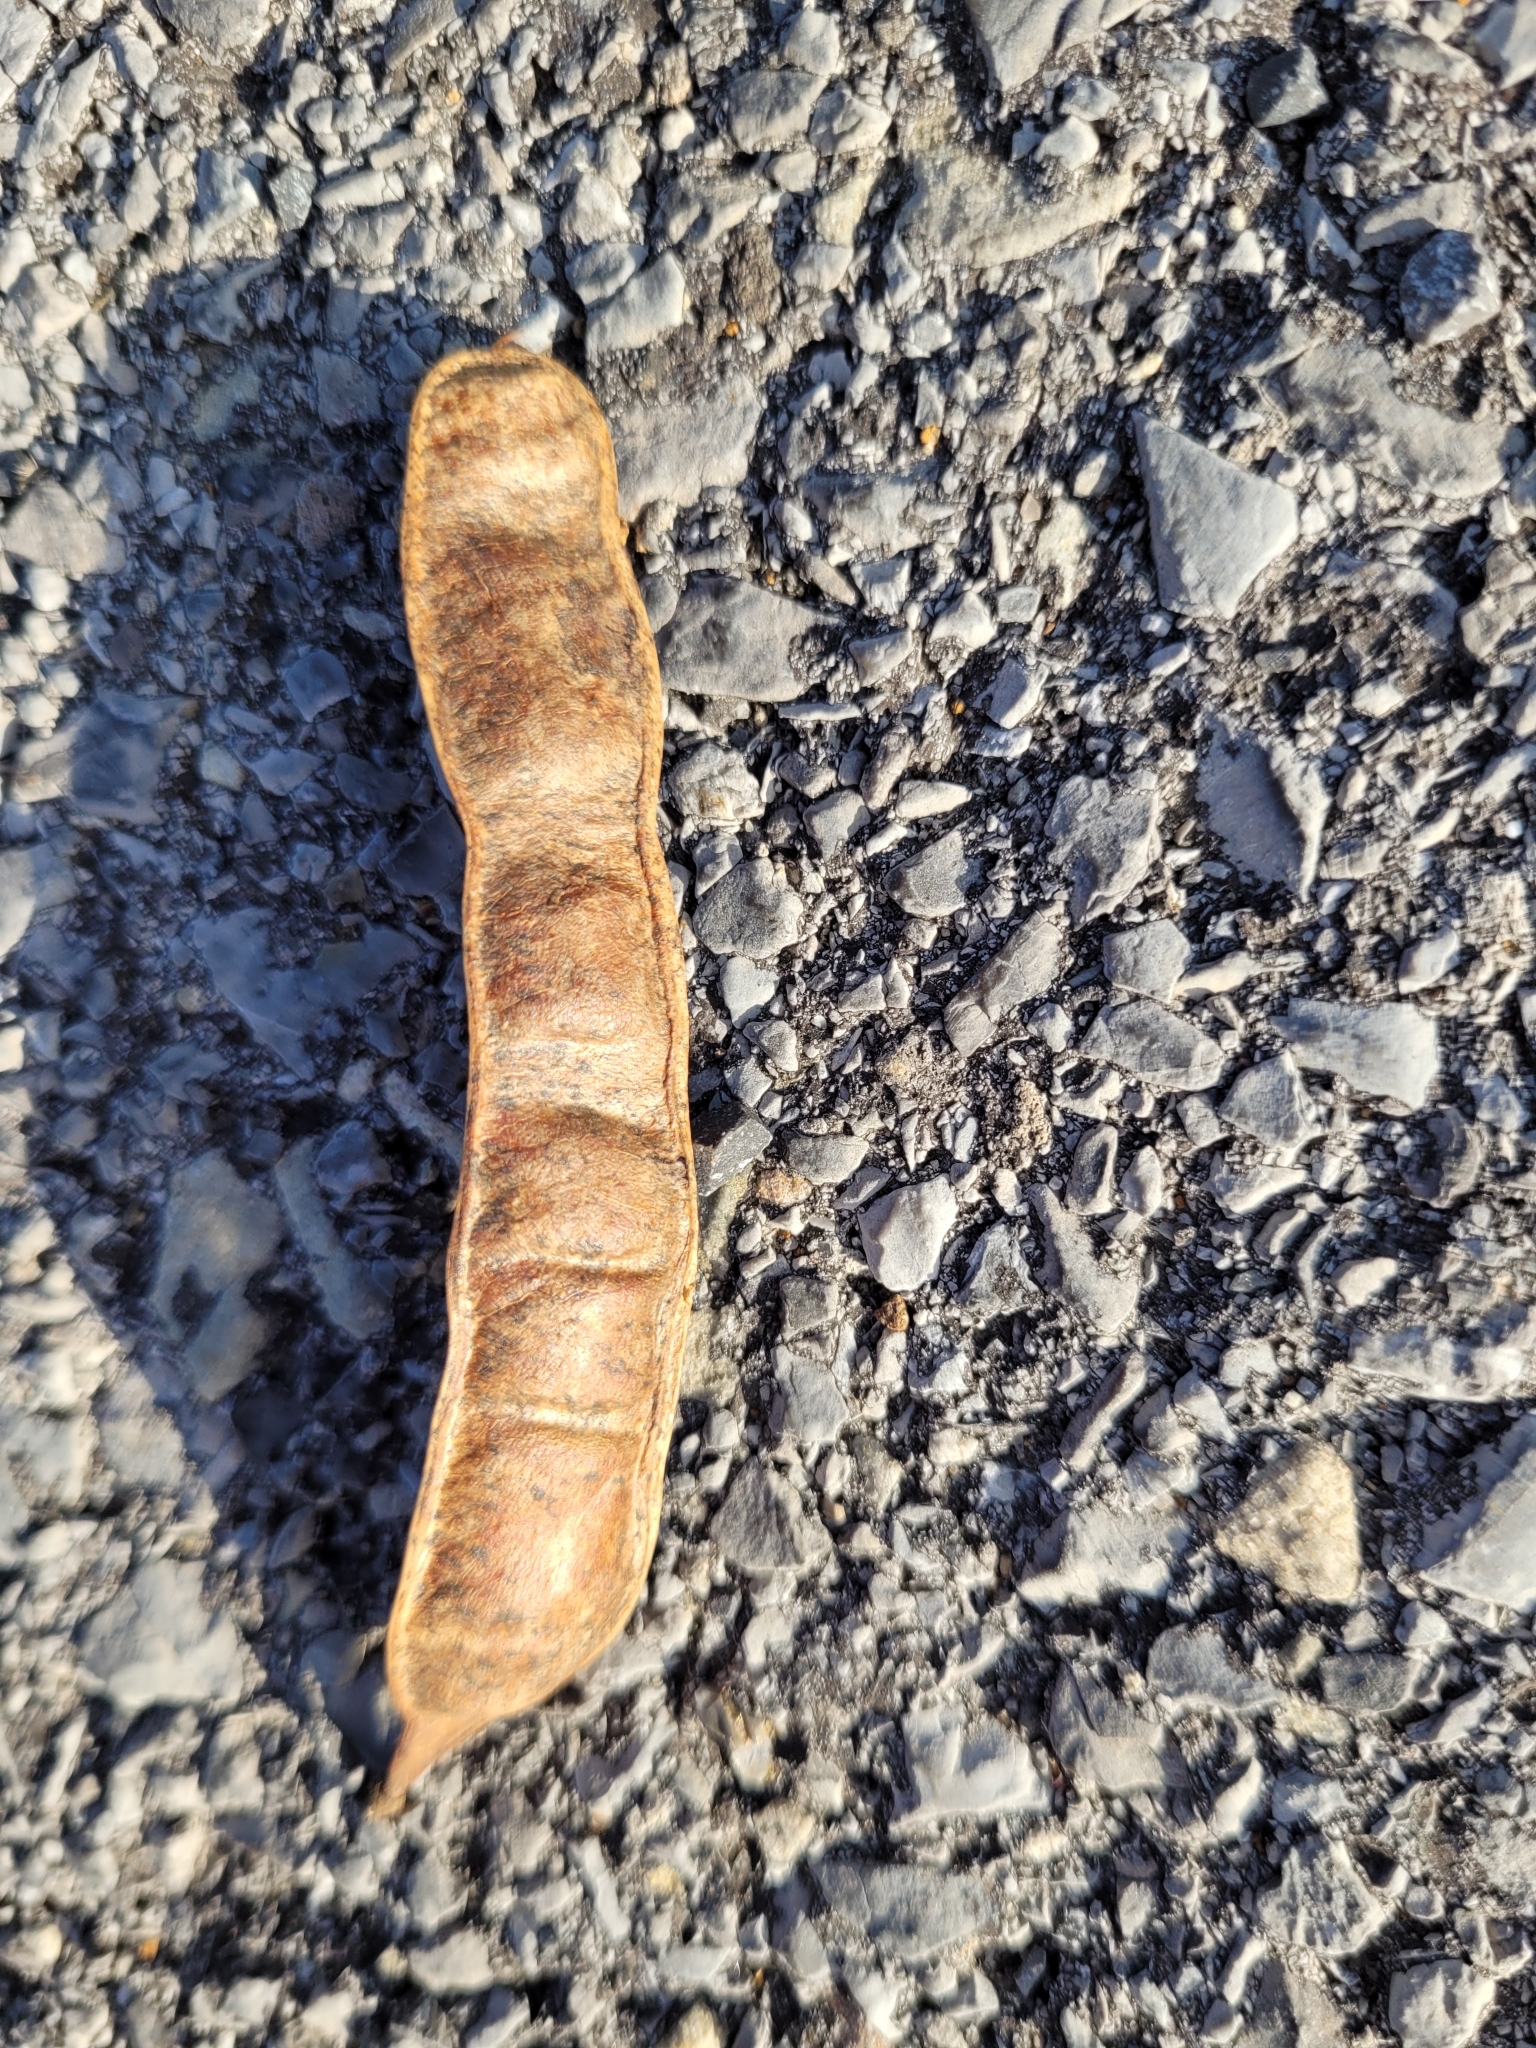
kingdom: Plantae
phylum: Tracheophyta
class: Magnoliopsida
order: Fabales
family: Fabaceae
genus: Cercis
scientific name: Cercis canadensis
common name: Eastern redbud
